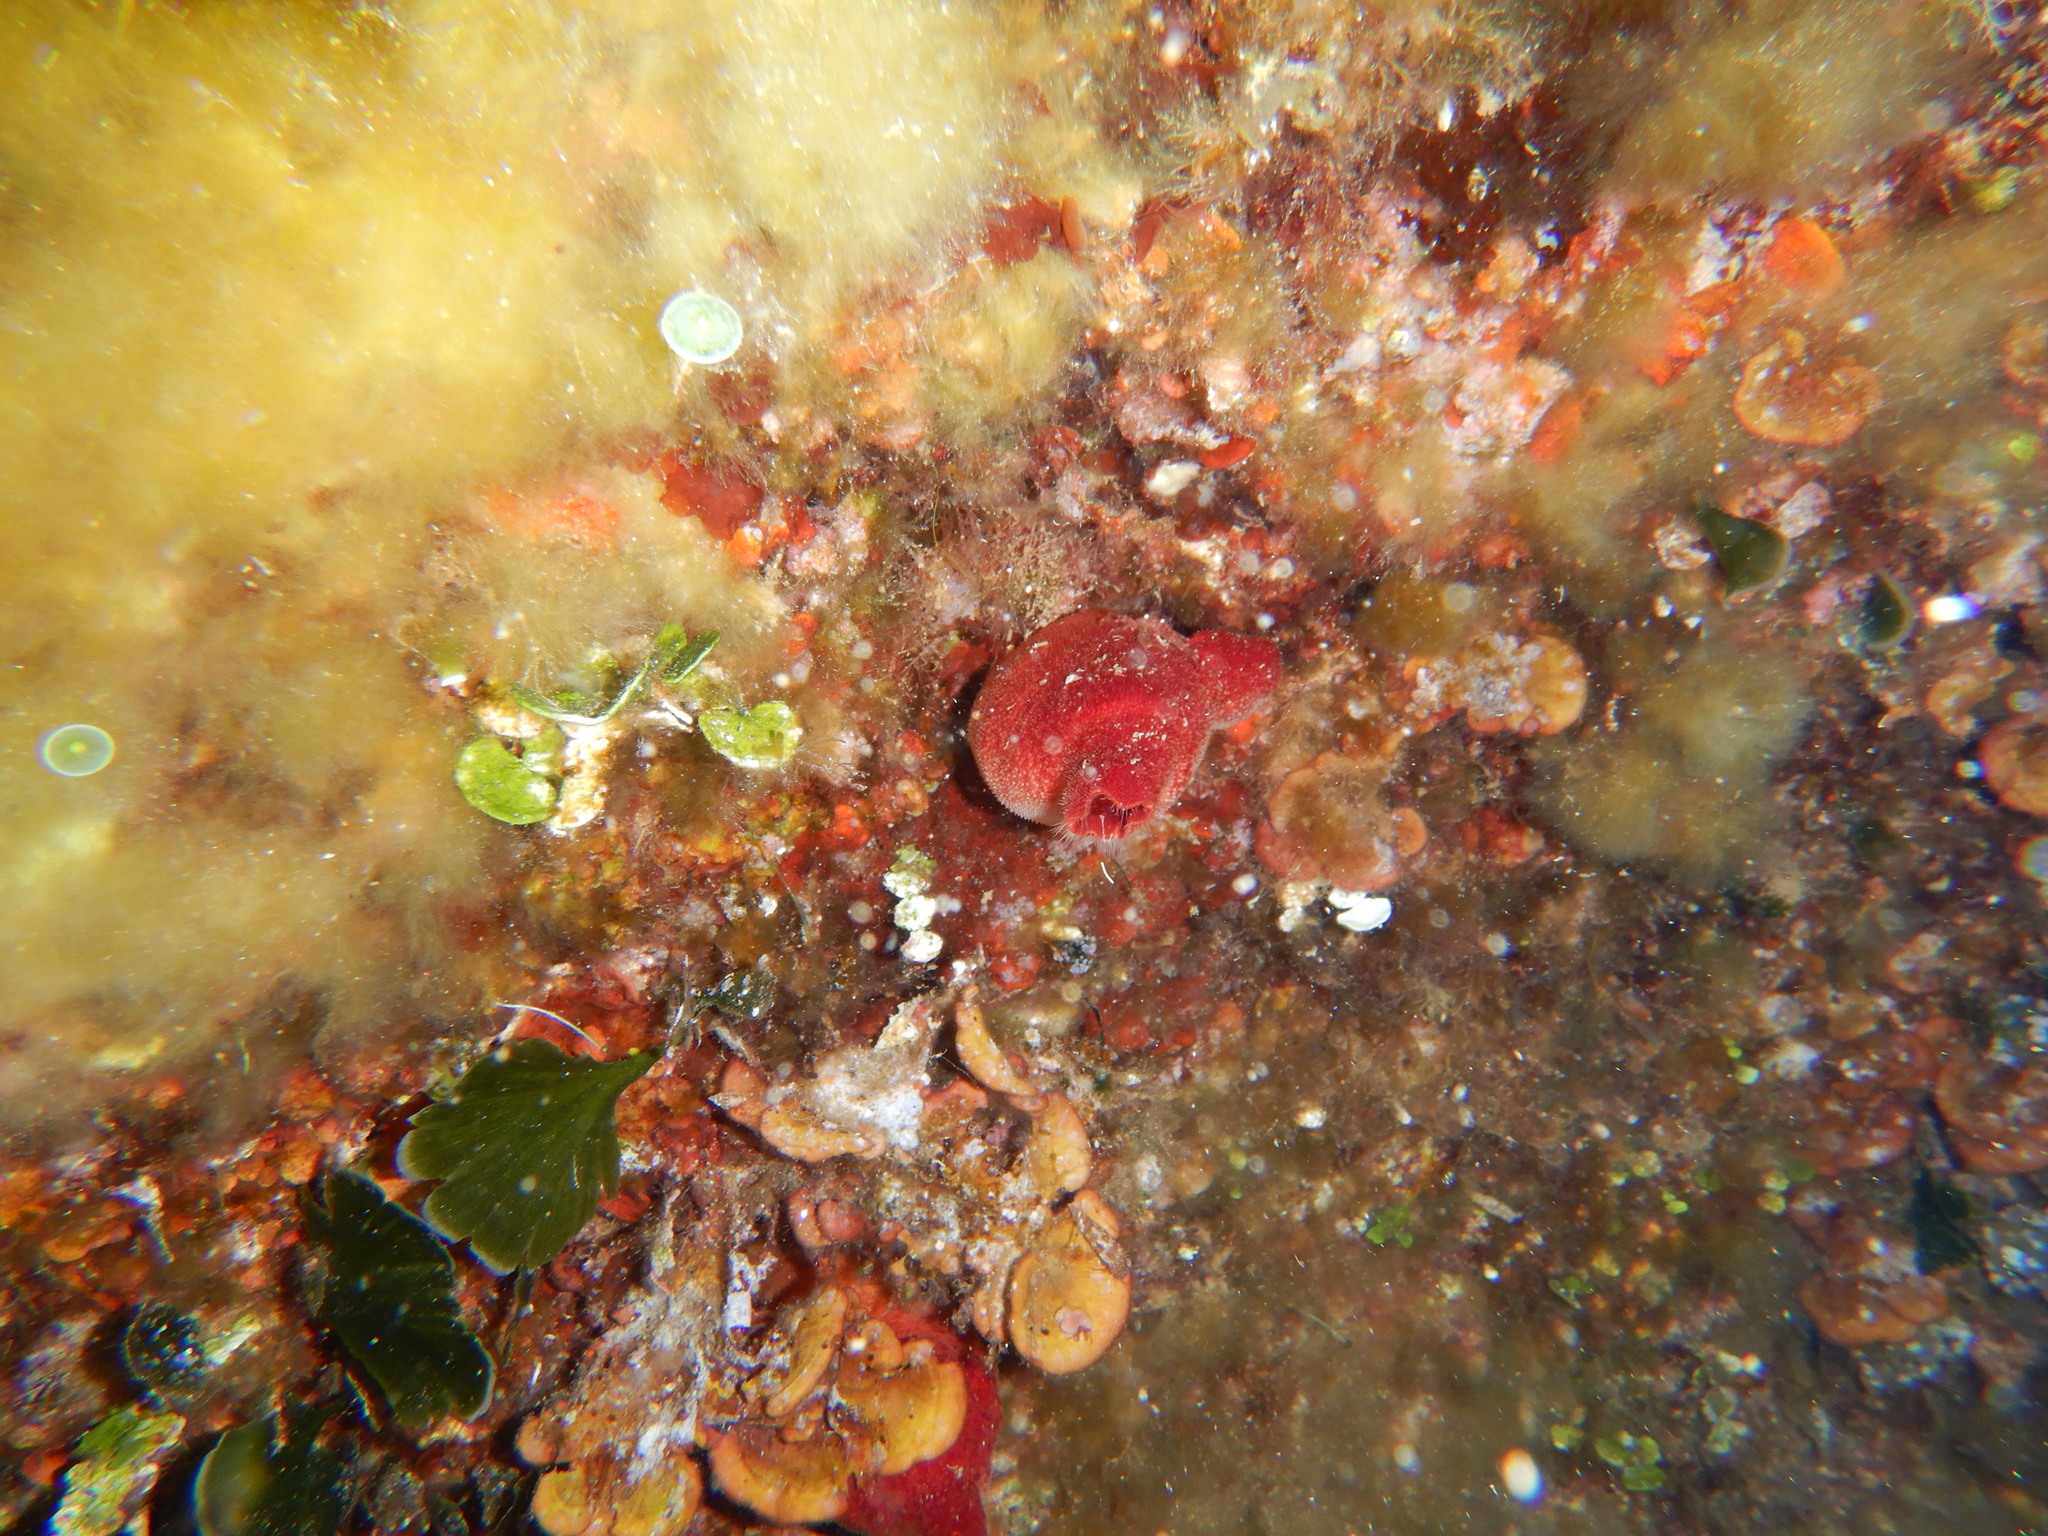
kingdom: Animalia
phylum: Chordata
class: Ascidiacea
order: Stolidobranchia
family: Pyuridae
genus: Halocynthia
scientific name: Halocynthia papillosa
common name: Red sea-squirt
